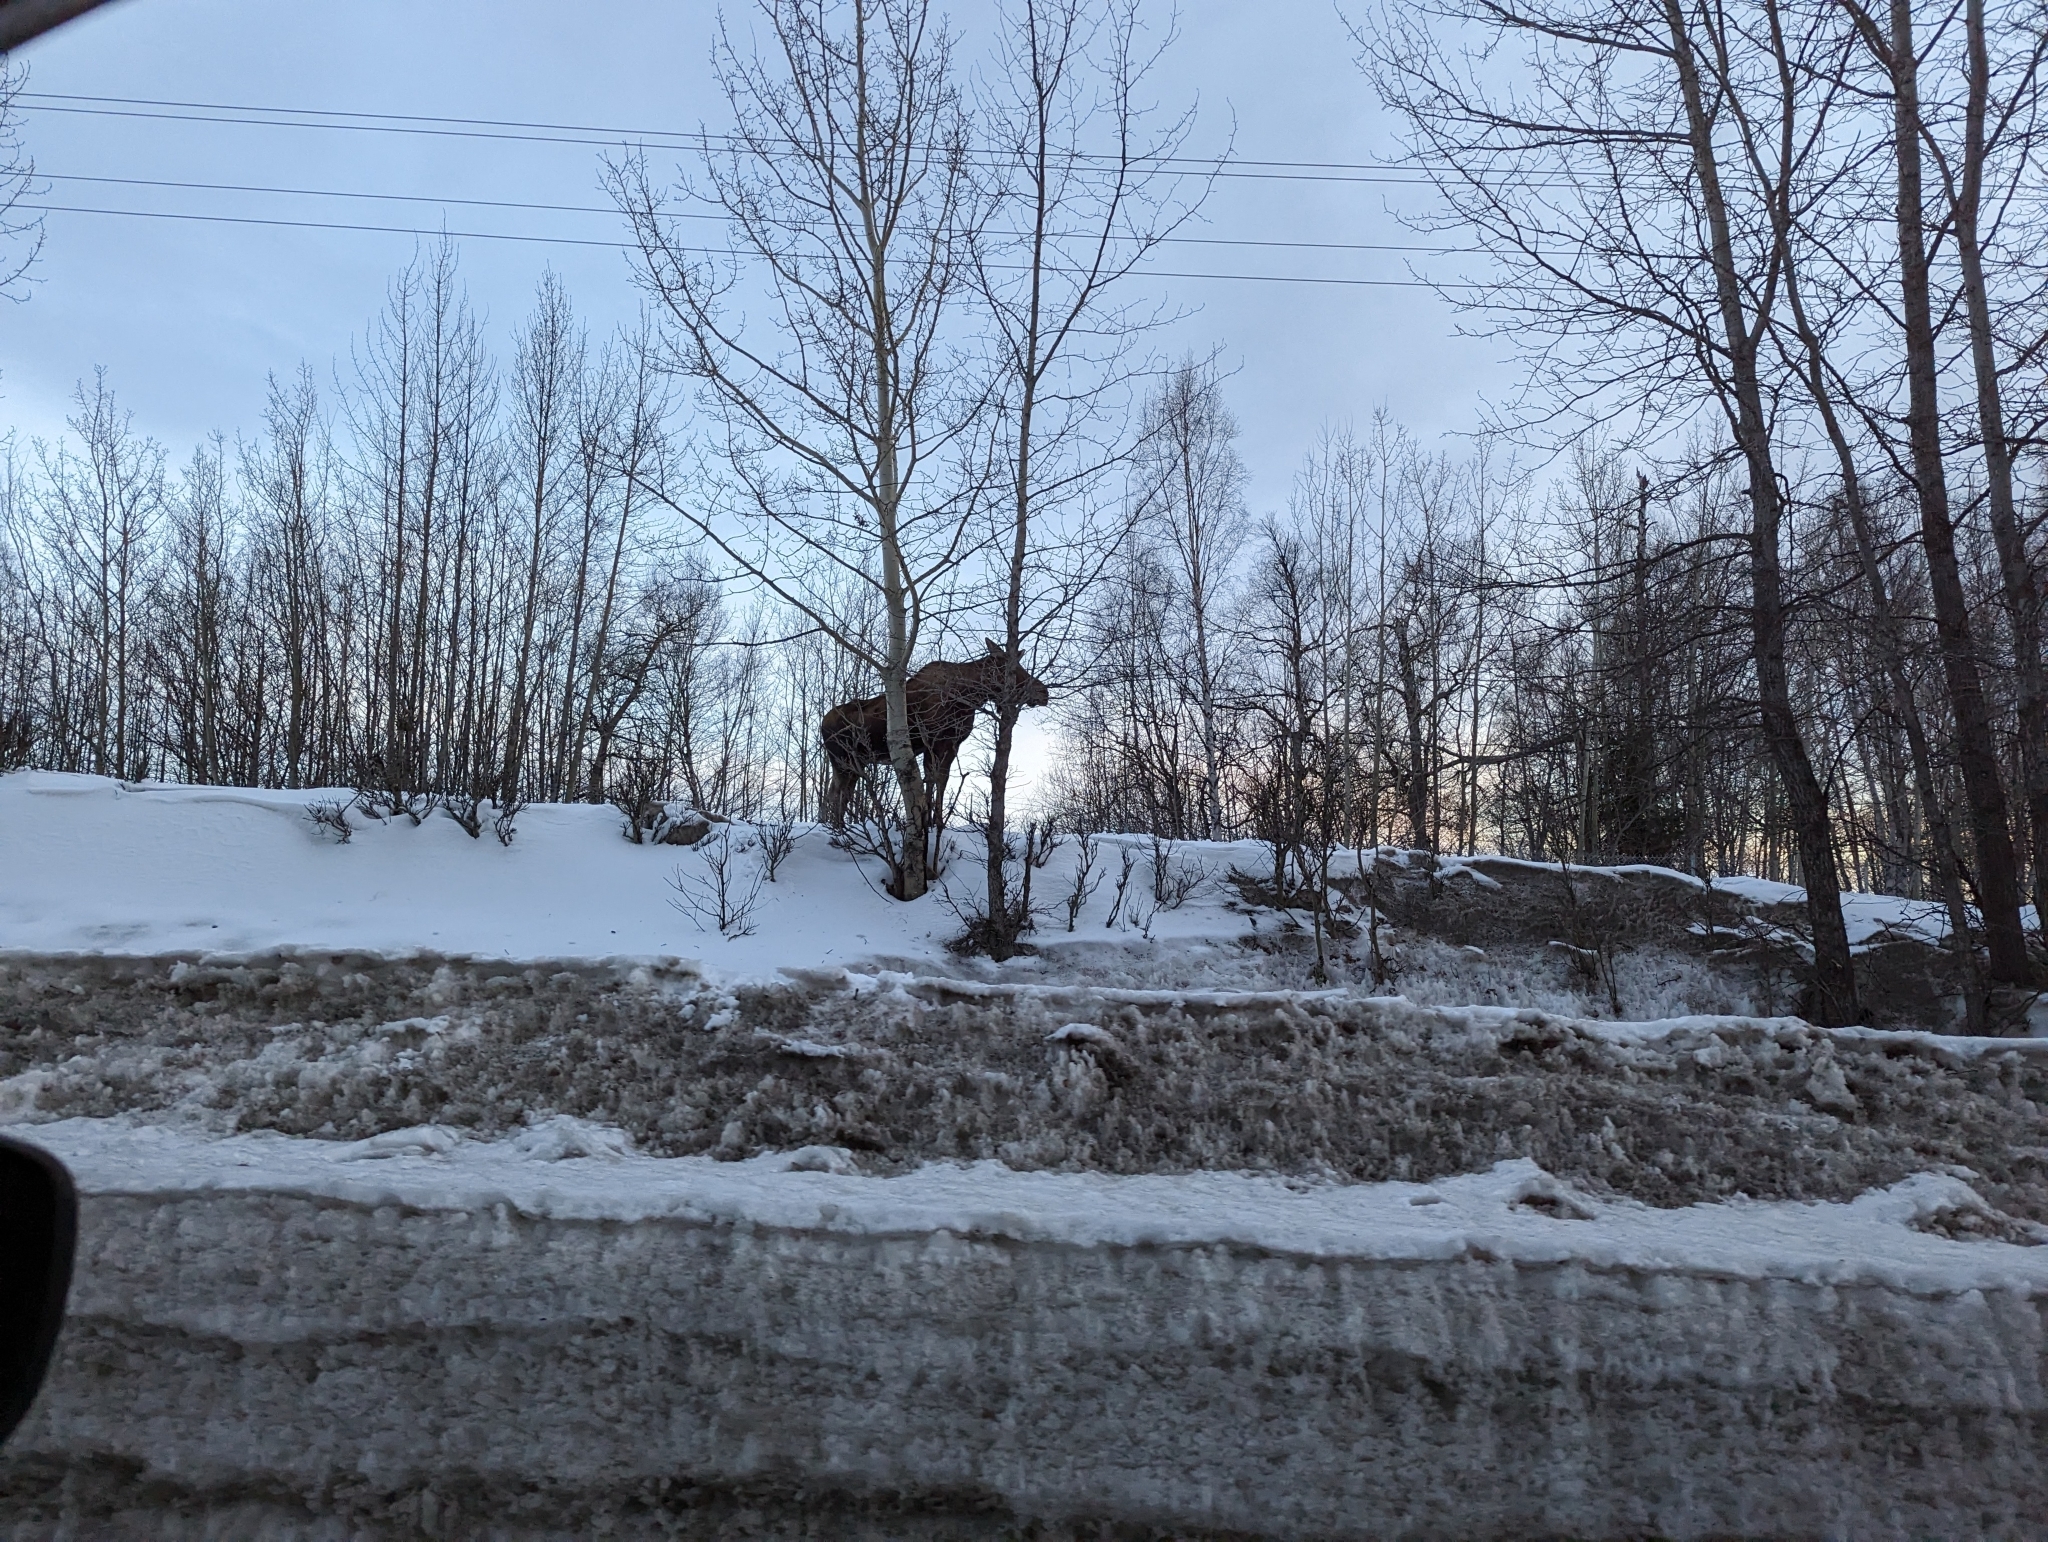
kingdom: Animalia
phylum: Chordata
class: Mammalia
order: Artiodactyla
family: Cervidae
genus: Alces
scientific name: Alces alces
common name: Moose
